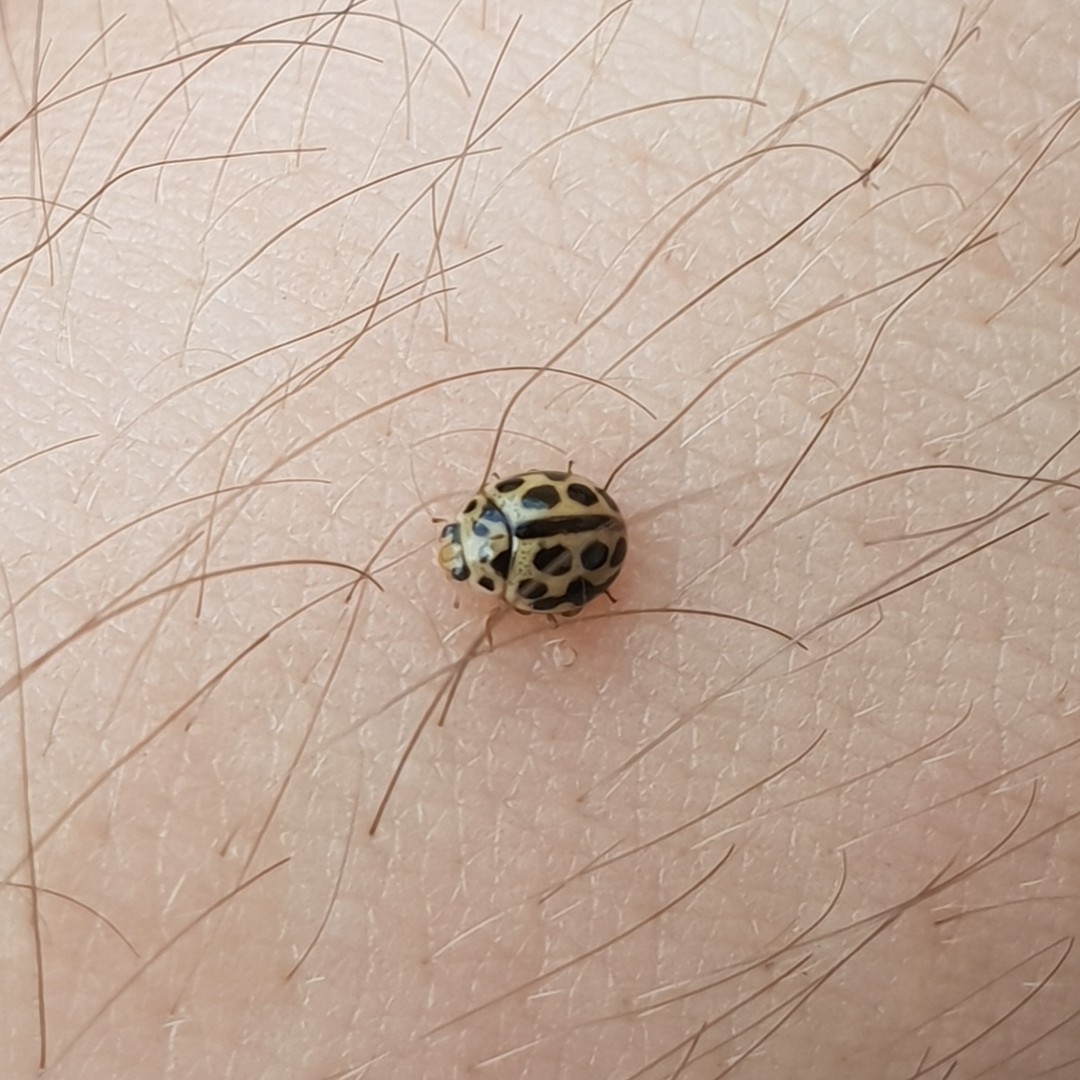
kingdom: Animalia
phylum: Arthropoda
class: Insecta
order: Coleoptera
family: Coccinellidae
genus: Tytthaspis
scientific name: Tytthaspis sedecimpunctata
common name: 16-spot ladybird
